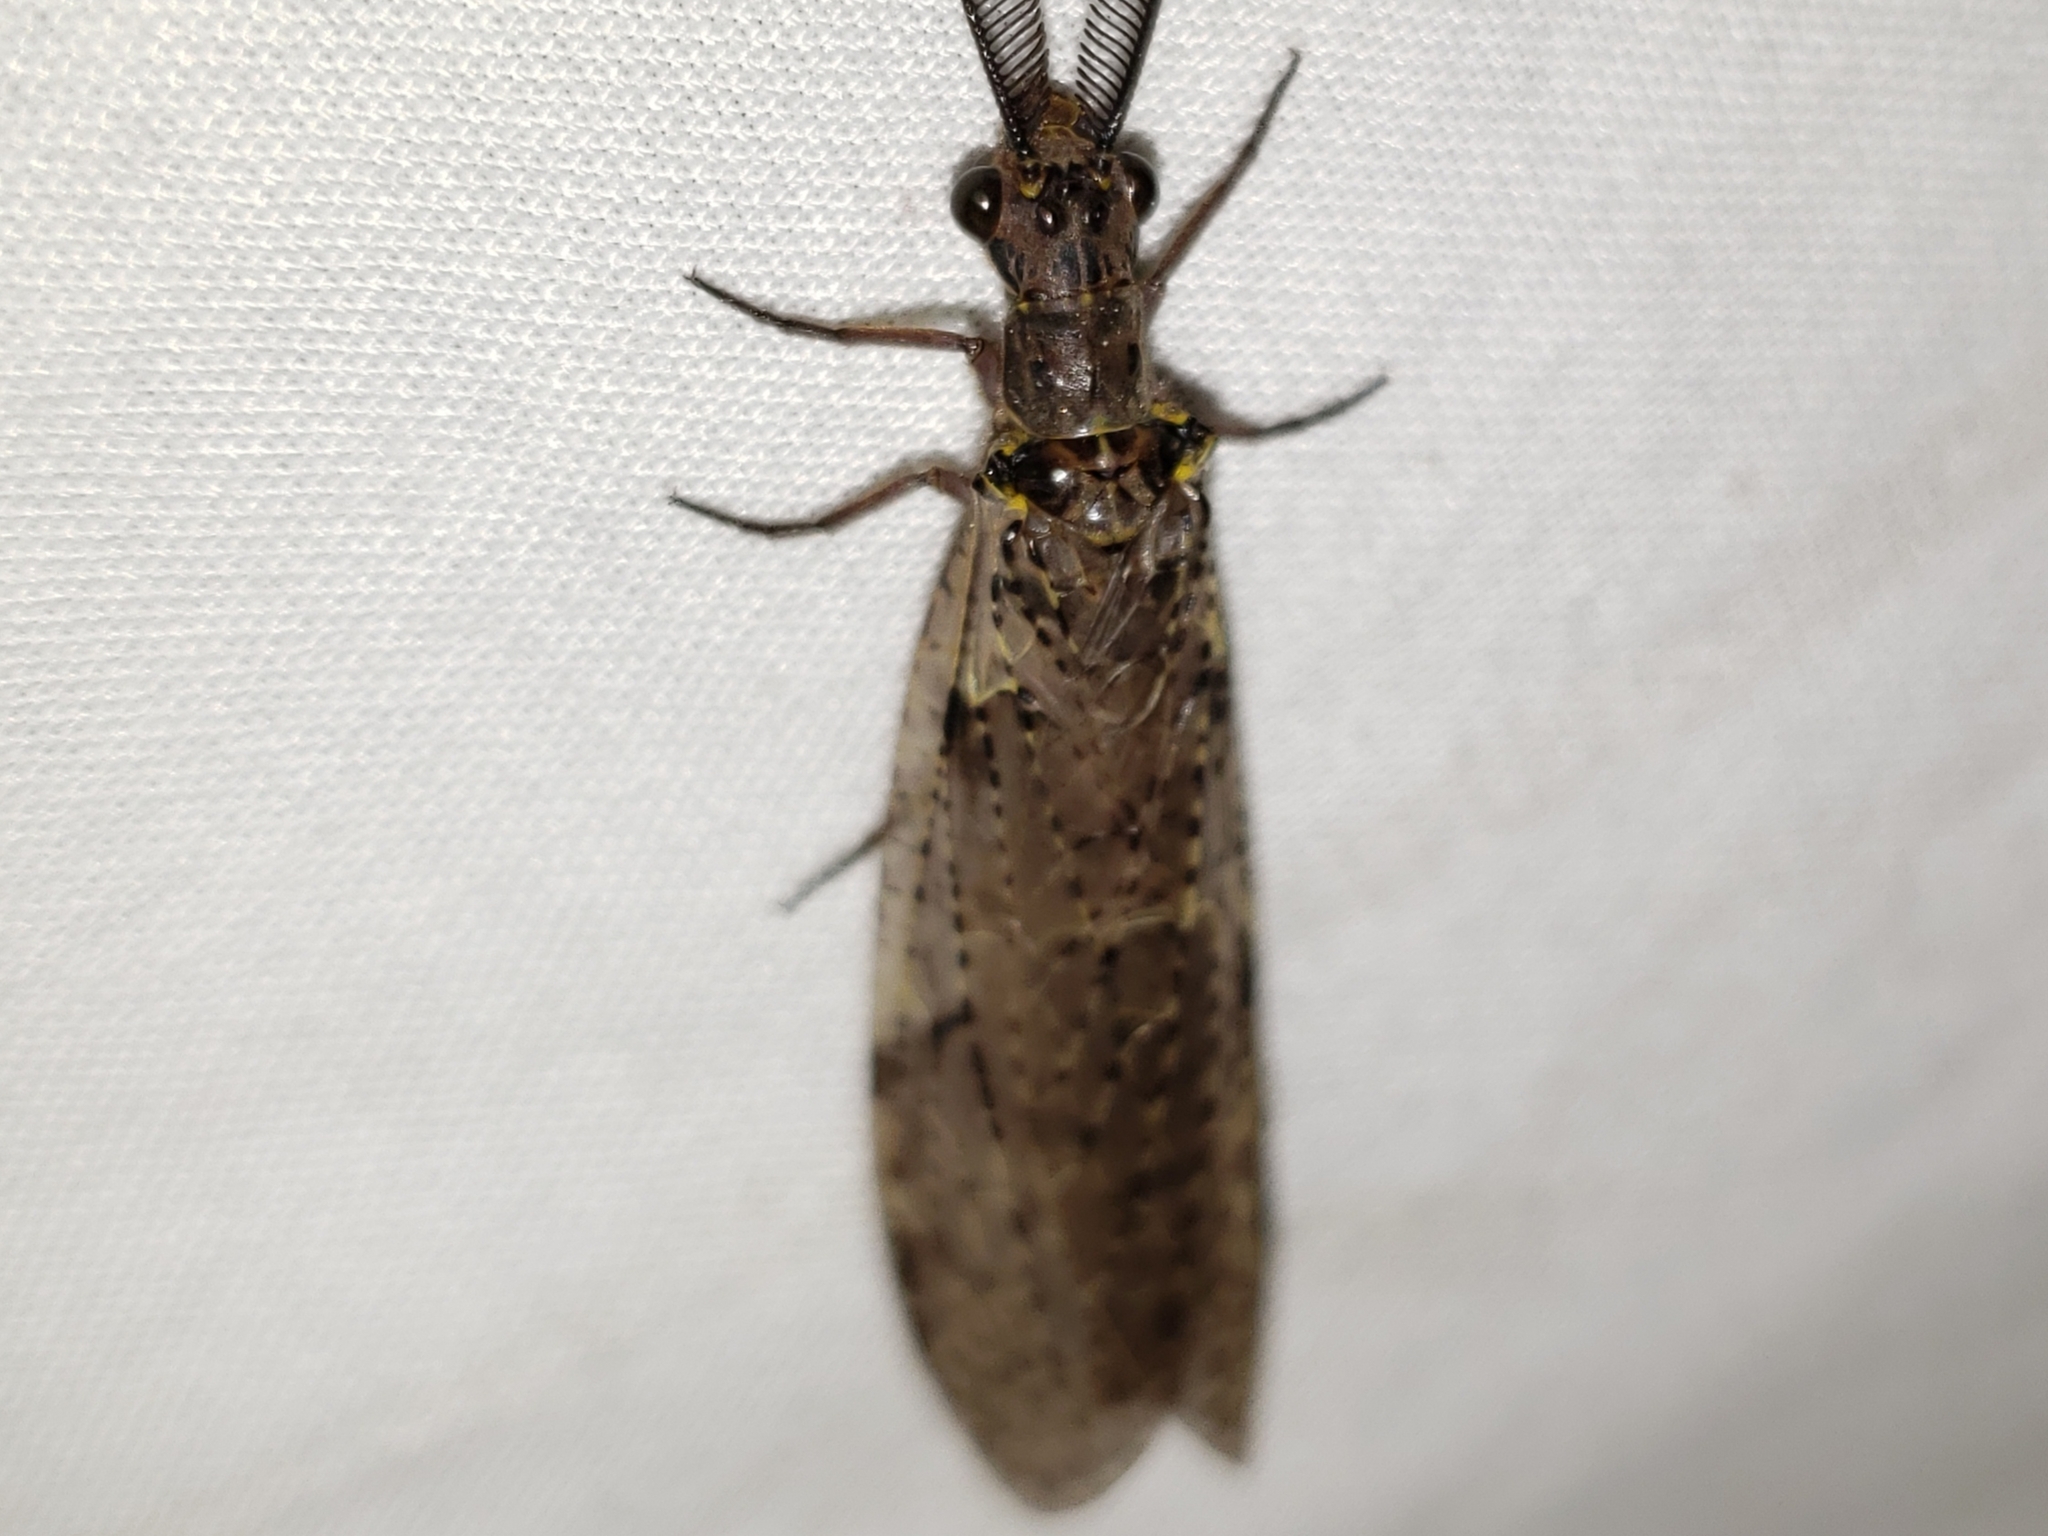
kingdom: Animalia
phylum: Arthropoda
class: Insecta
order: Megaloptera
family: Corydalidae
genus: Chauliodes
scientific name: Chauliodes rastricornis
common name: Spring fishfly
